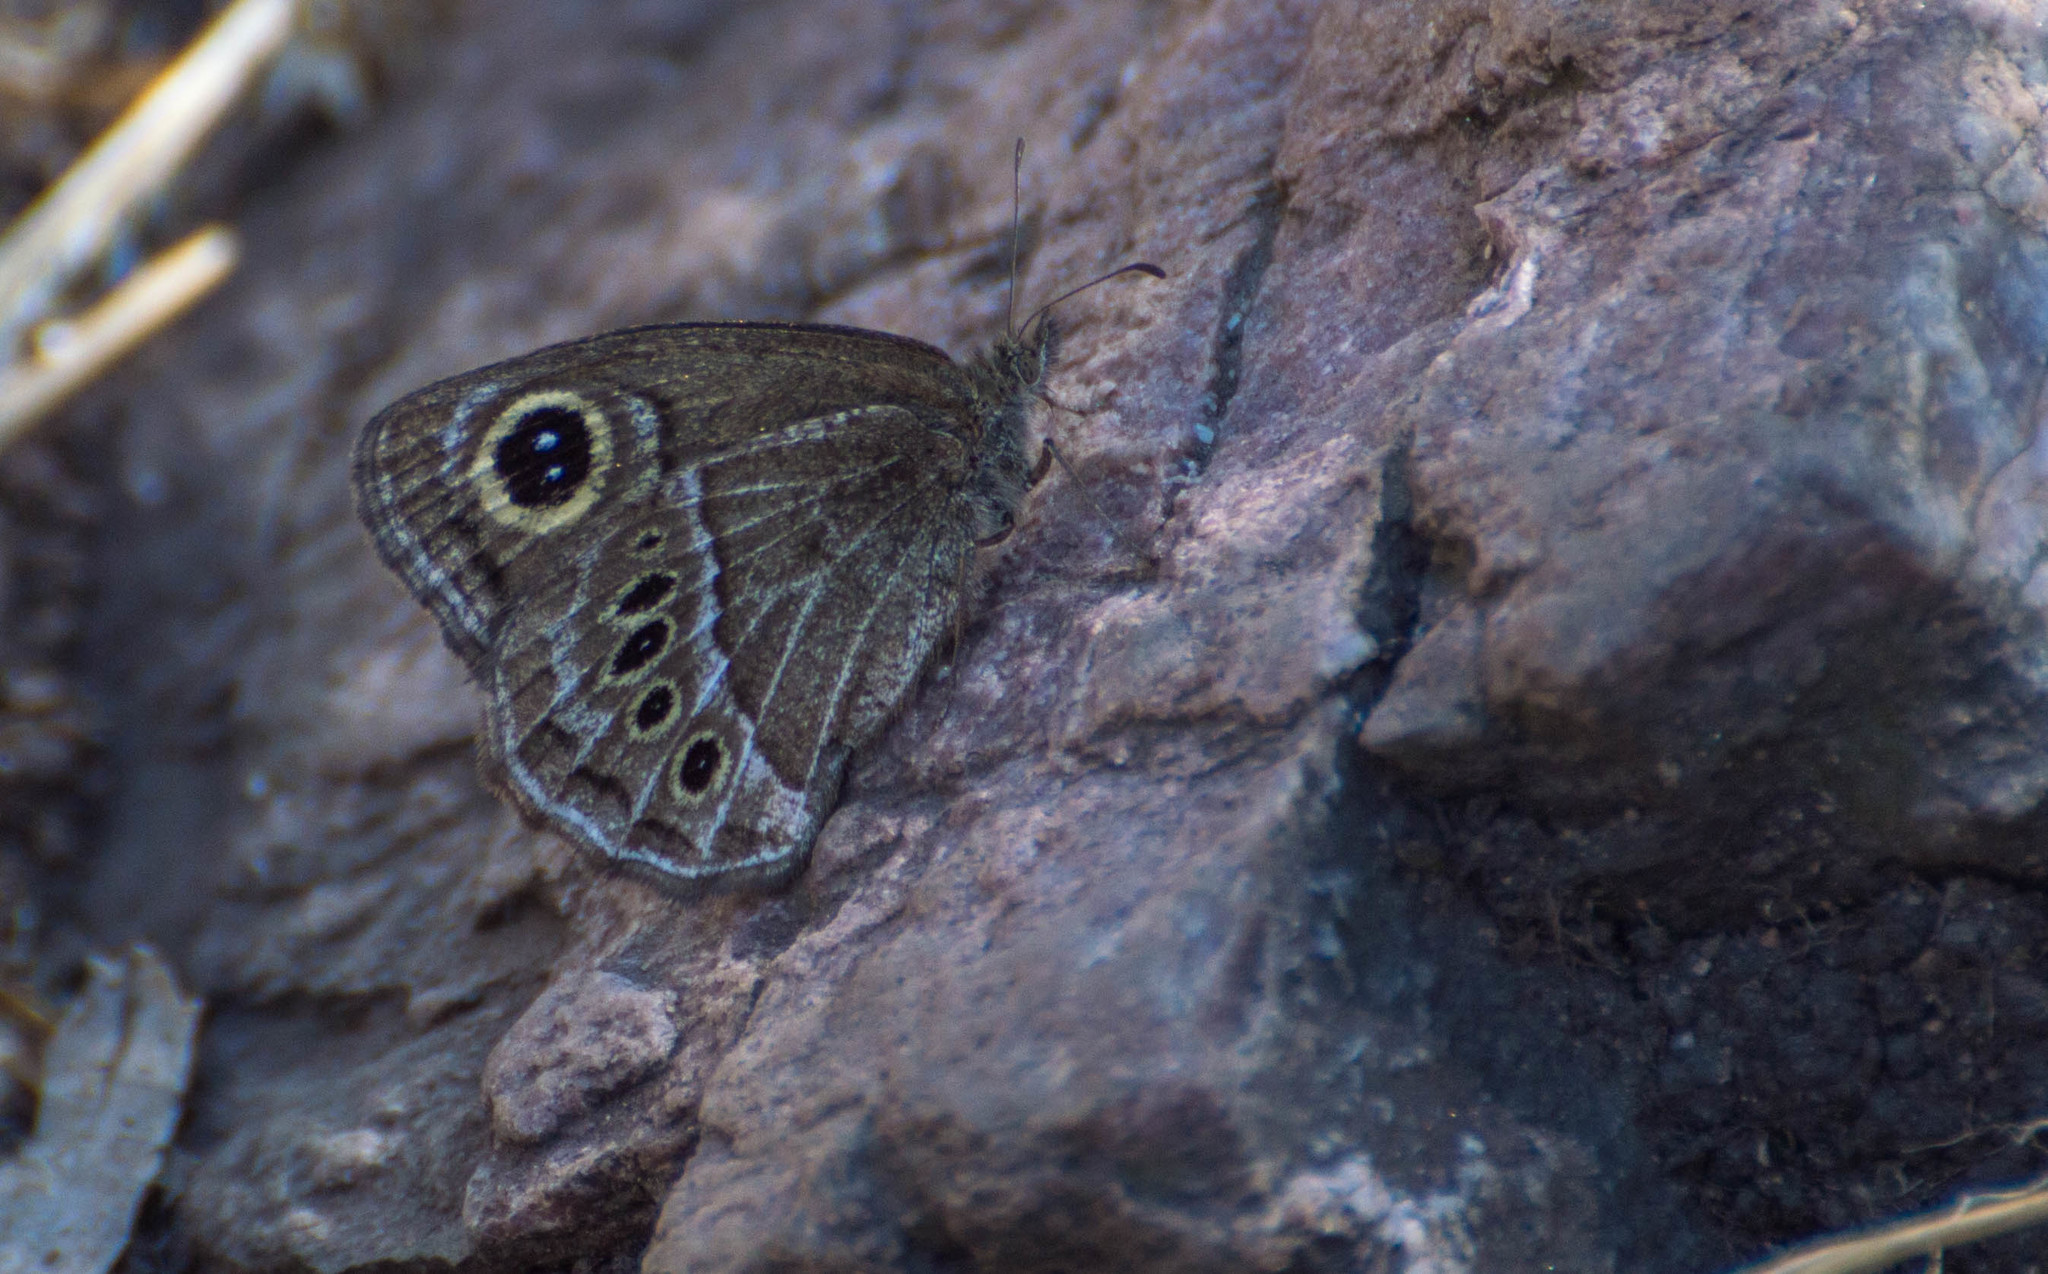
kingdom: Animalia
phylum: Arthropoda
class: Insecta
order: Lepidoptera
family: Nymphalidae
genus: Pampasatyrus
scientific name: Pampasatyrus gyrtone
